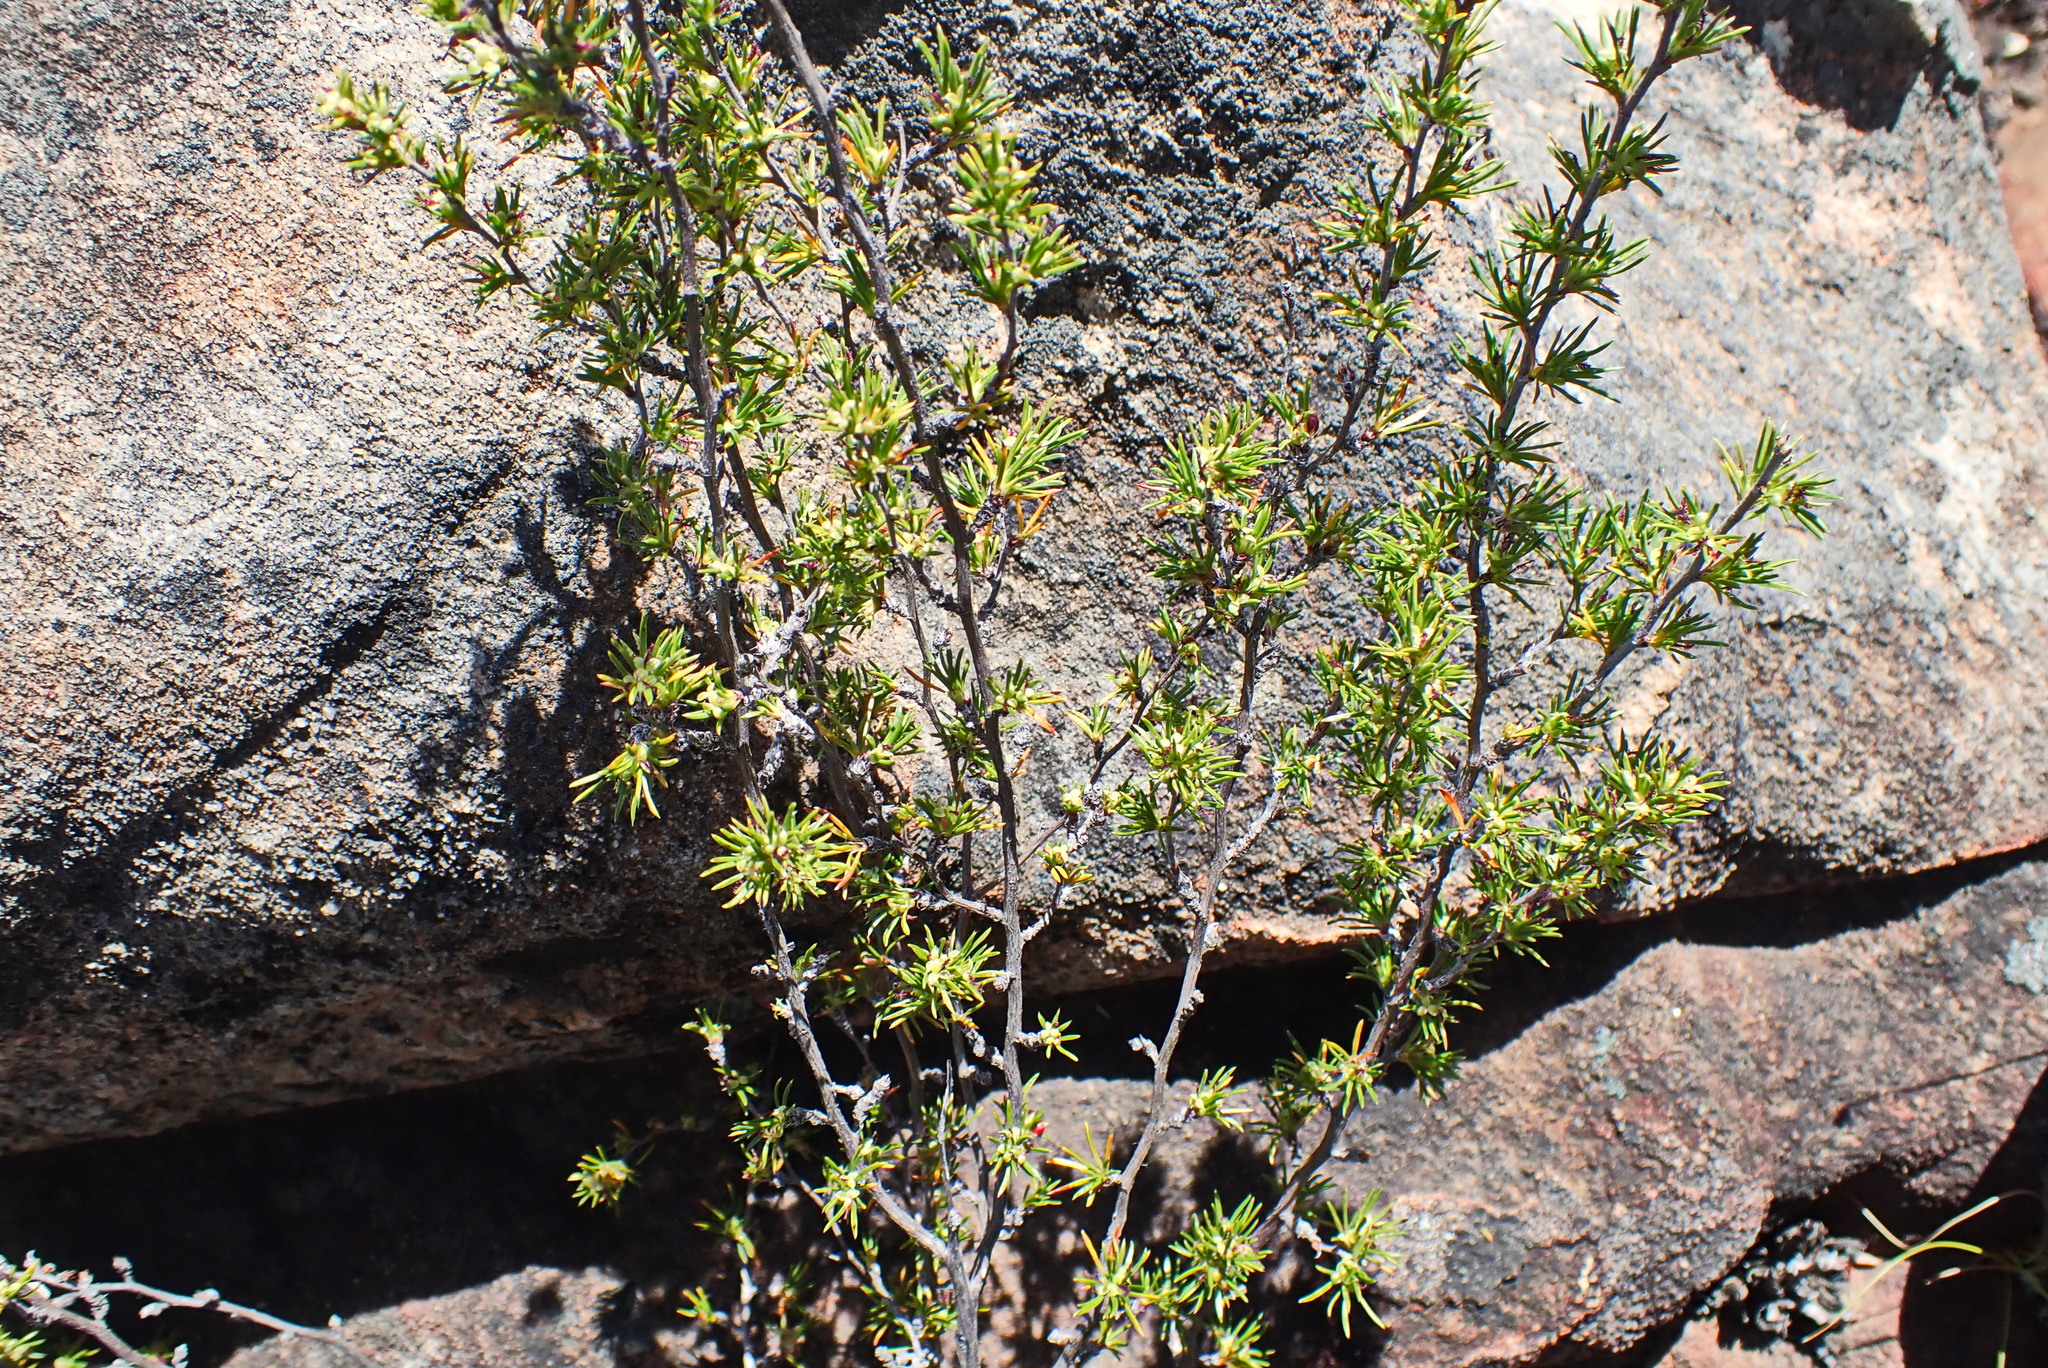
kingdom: Plantae
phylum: Tracheophyta
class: Magnoliopsida
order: Rosales
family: Rosaceae
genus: Cliffortia
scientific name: Cliffortia tuberculata
